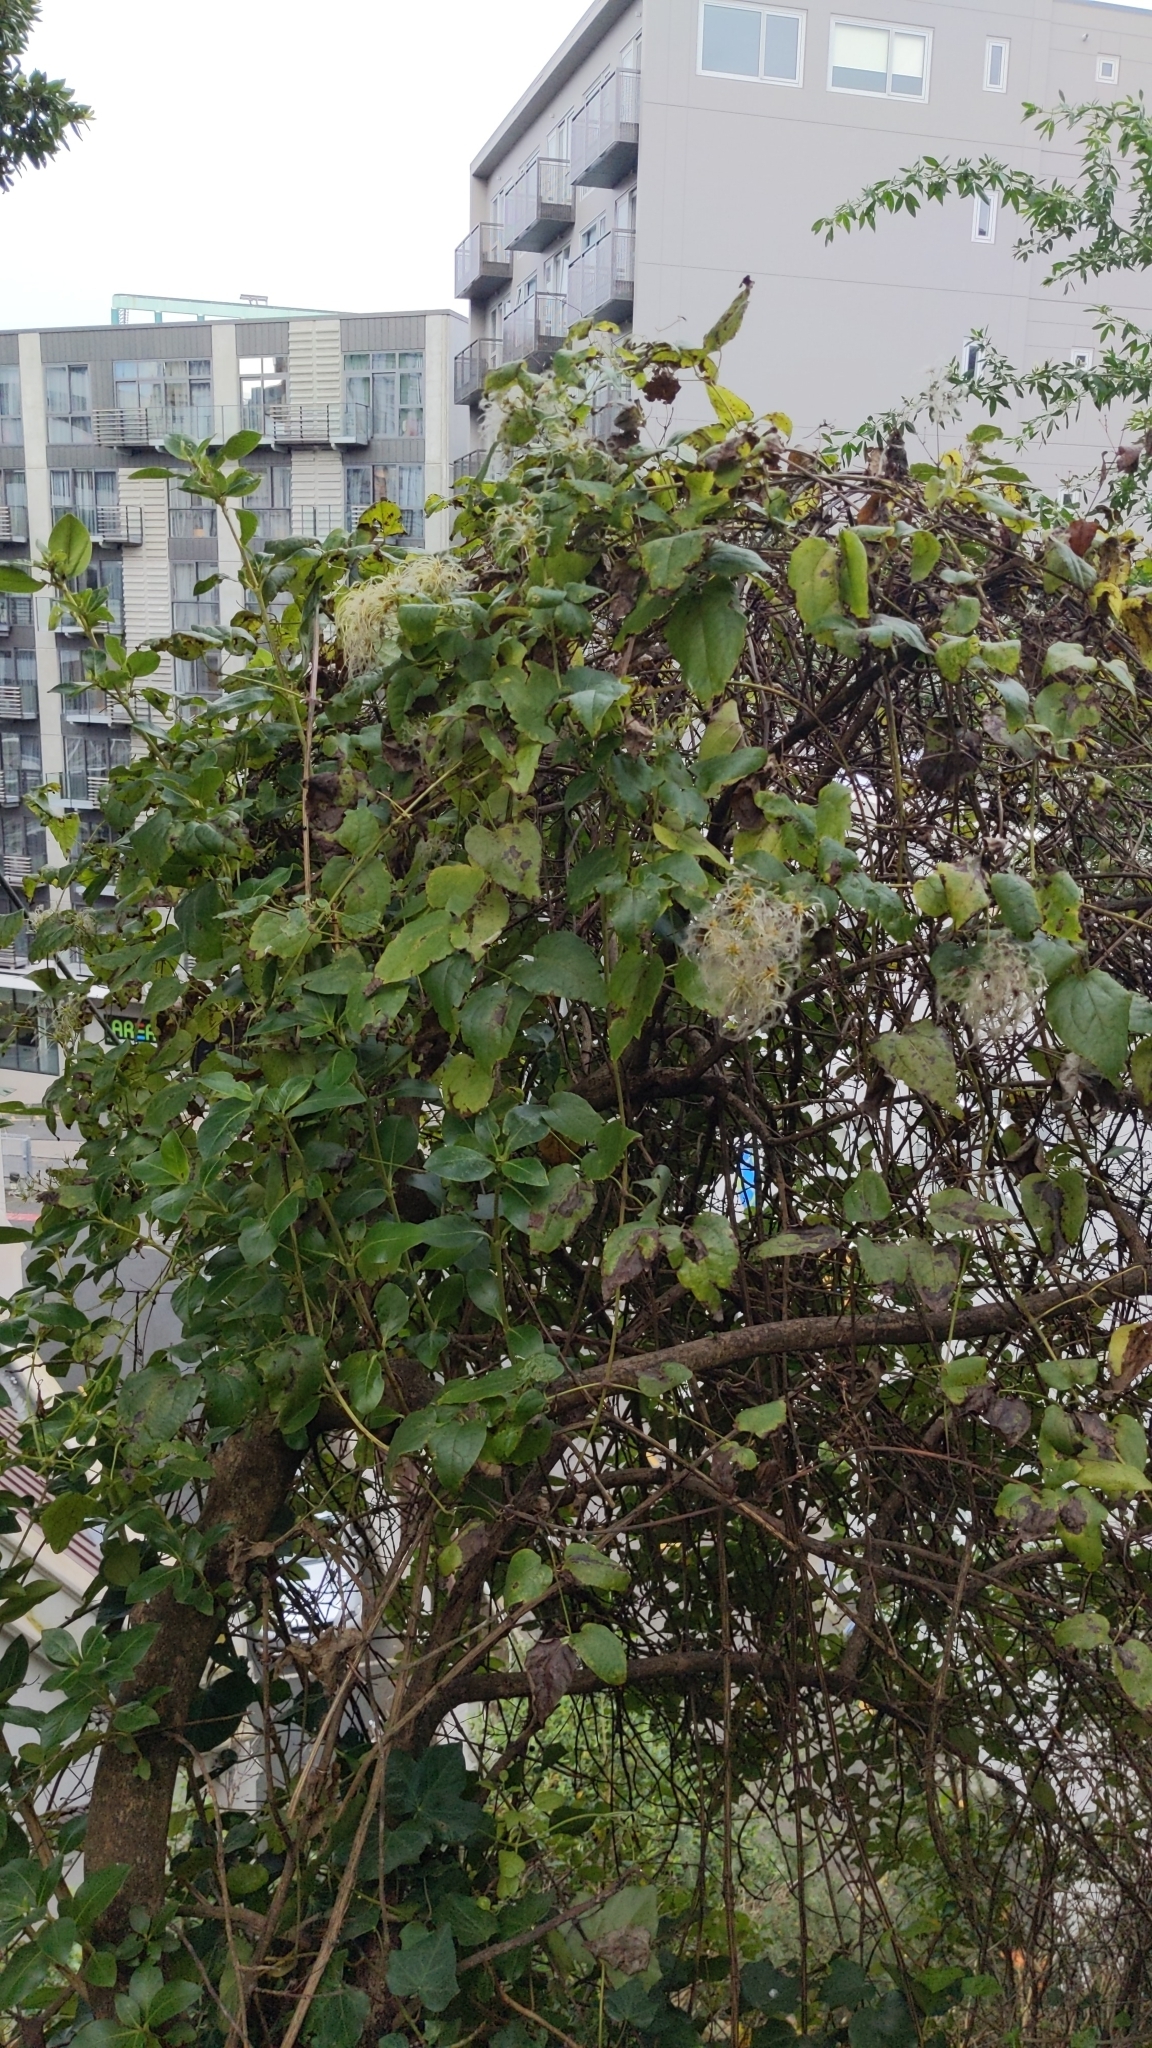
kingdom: Plantae
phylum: Tracheophyta
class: Magnoliopsida
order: Ranunculales
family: Ranunculaceae
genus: Clematis
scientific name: Clematis vitalba
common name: Evergreen clematis
